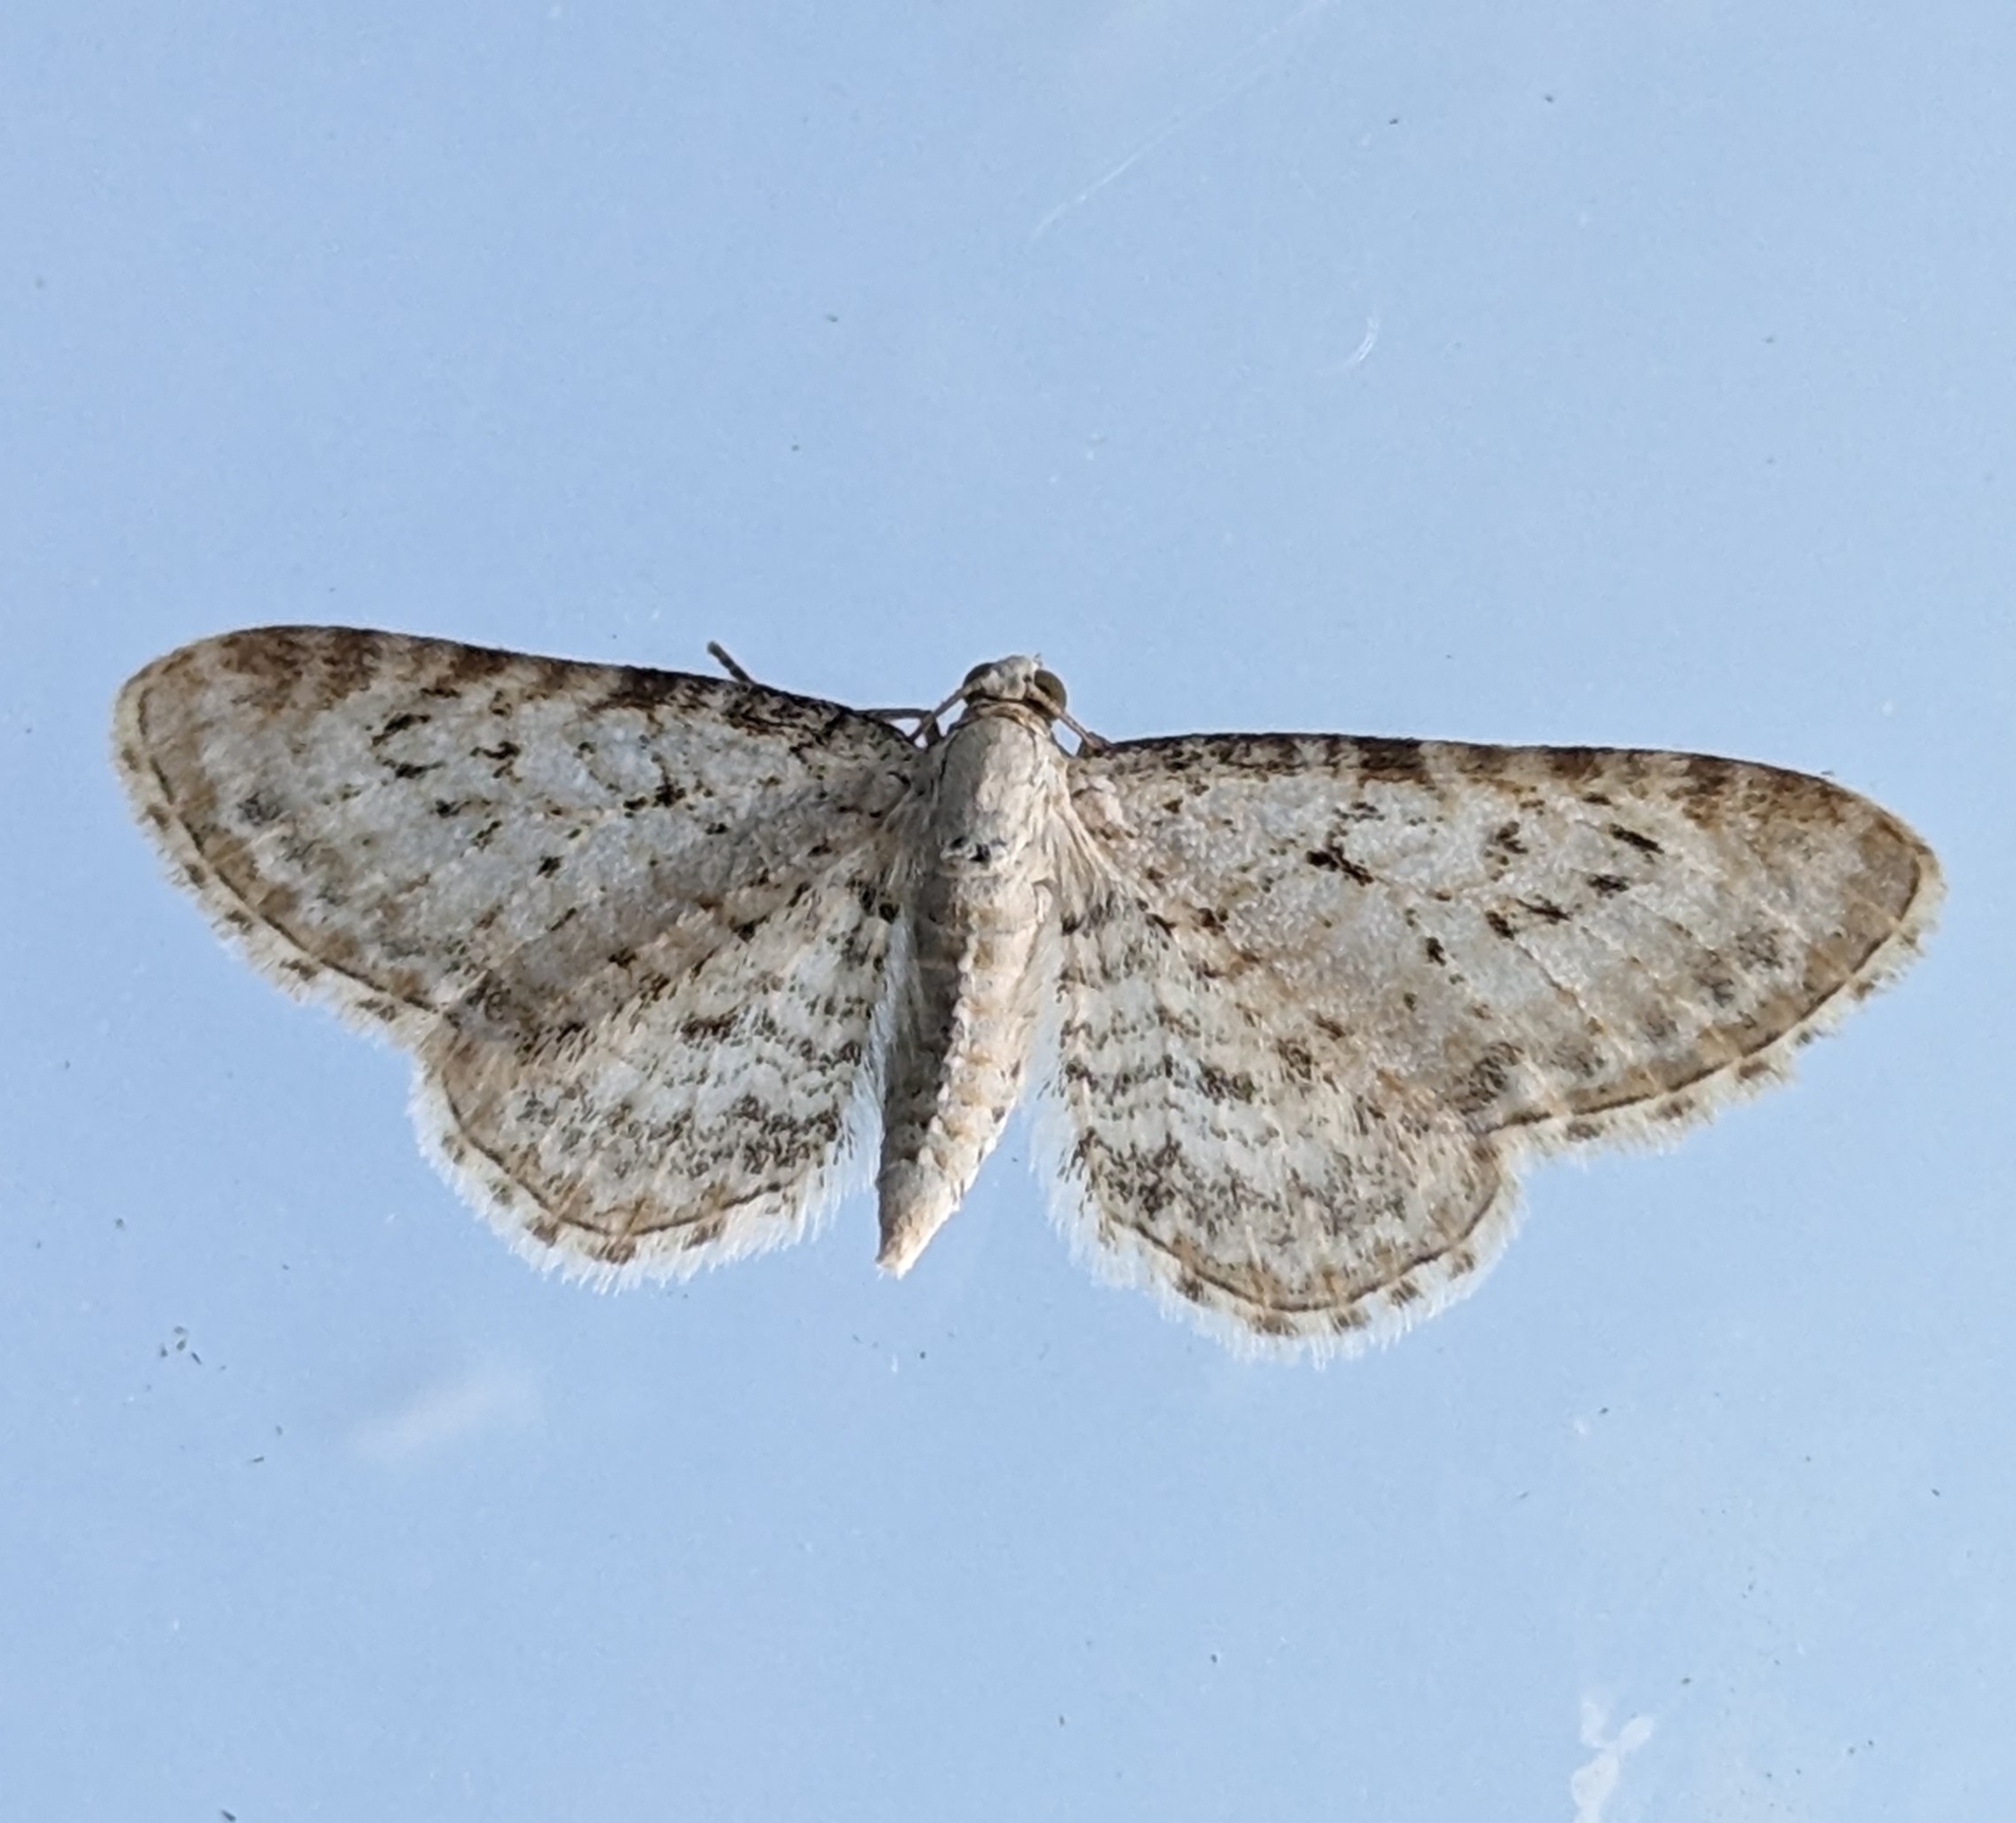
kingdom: Animalia
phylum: Arthropoda
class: Insecta
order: Lepidoptera
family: Geometridae
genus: Eupithecia
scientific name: Eupithecia cretaceata
